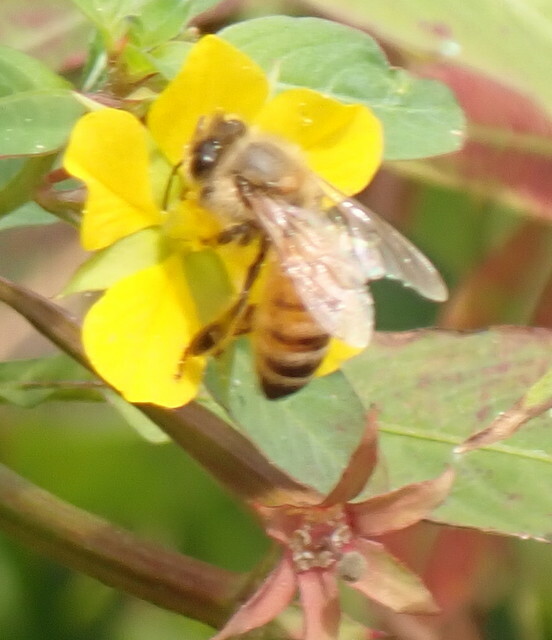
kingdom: Animalia
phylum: Arthropoda
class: Insecta
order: Hymenoptera
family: Apidae
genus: Apis
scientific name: Apis mellifera
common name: Honey bee
